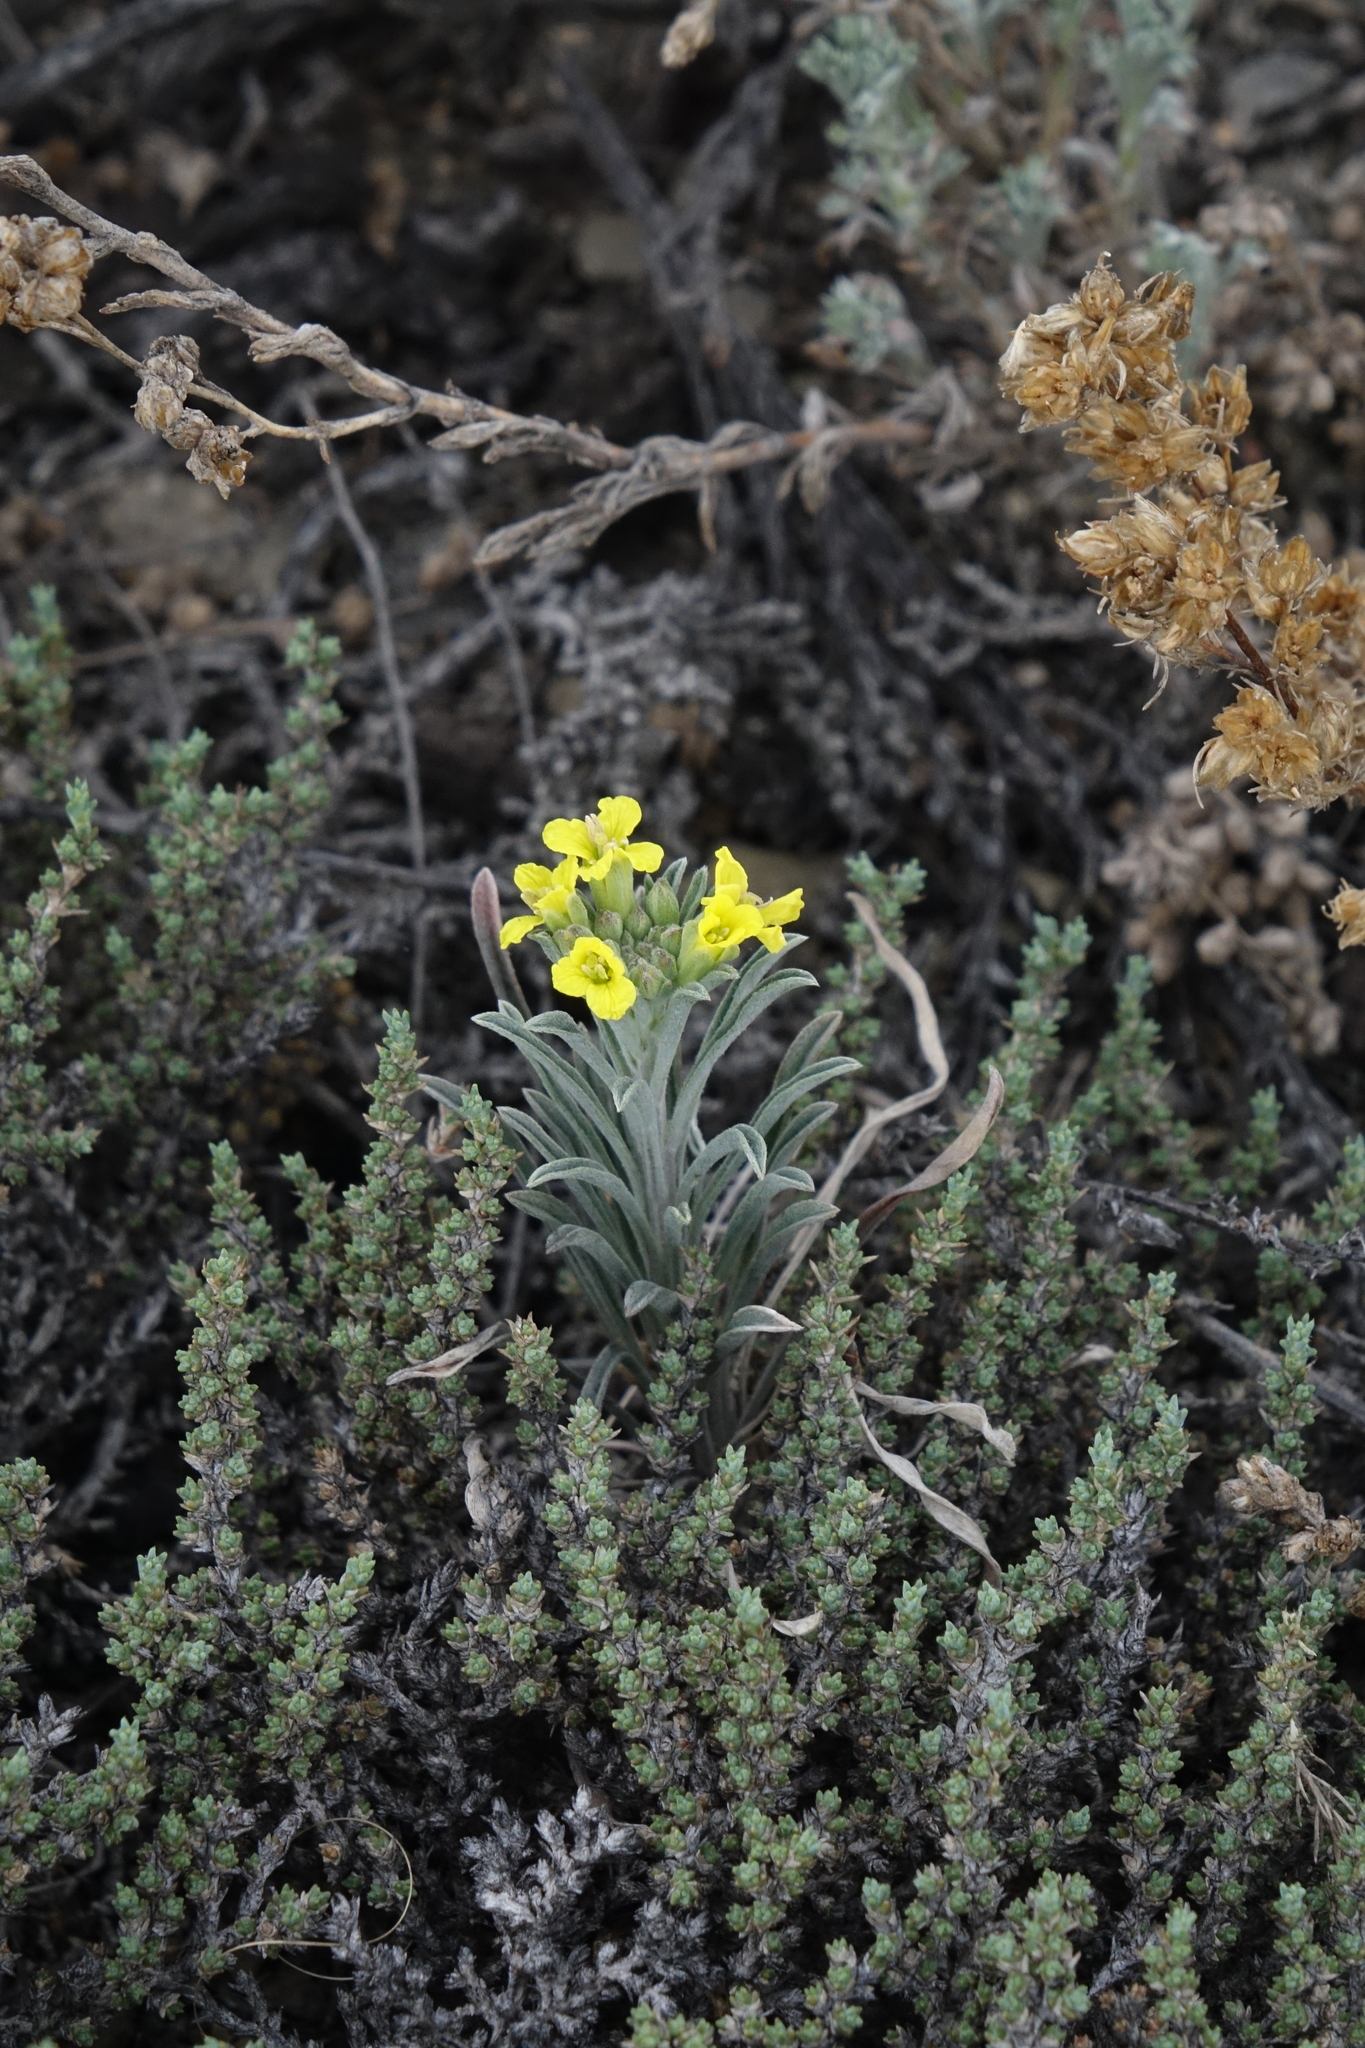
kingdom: Plantae
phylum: Tracheophyta
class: Magnoliopsida
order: Brassicales
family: Brassicaceae
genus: Erysimum
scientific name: Erysimum flavum
